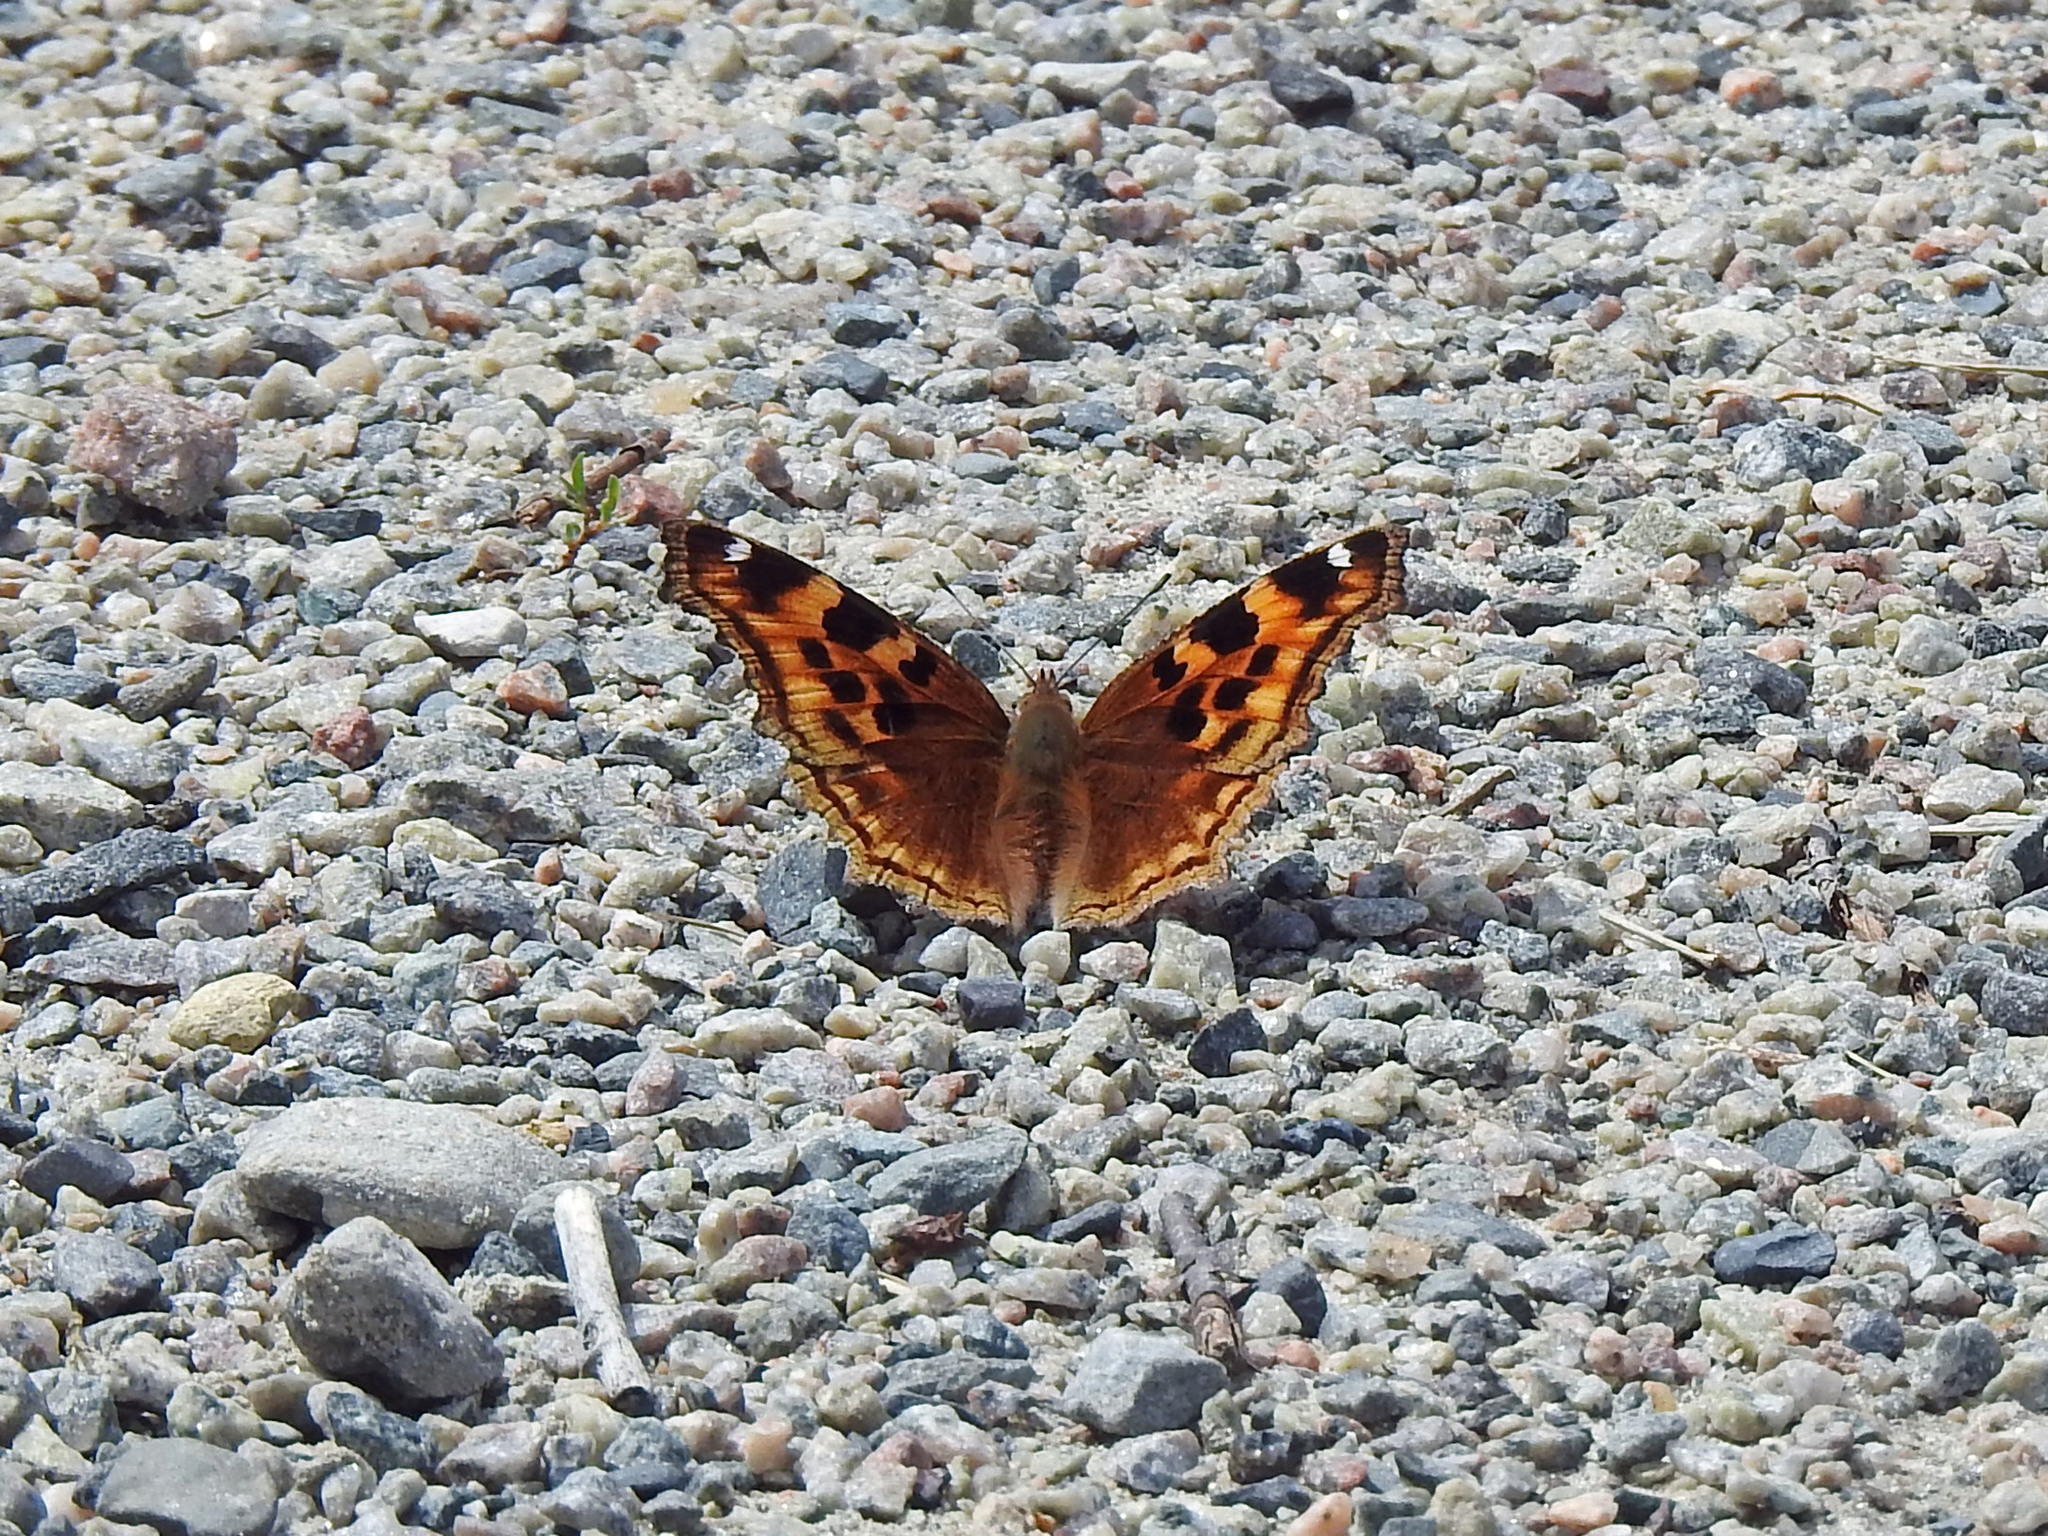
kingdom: Animalia
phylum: Arthropoda
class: Insecta
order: Lepidoptera
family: Nymphalidae
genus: Polygonia
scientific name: Polygonia vaualbum
